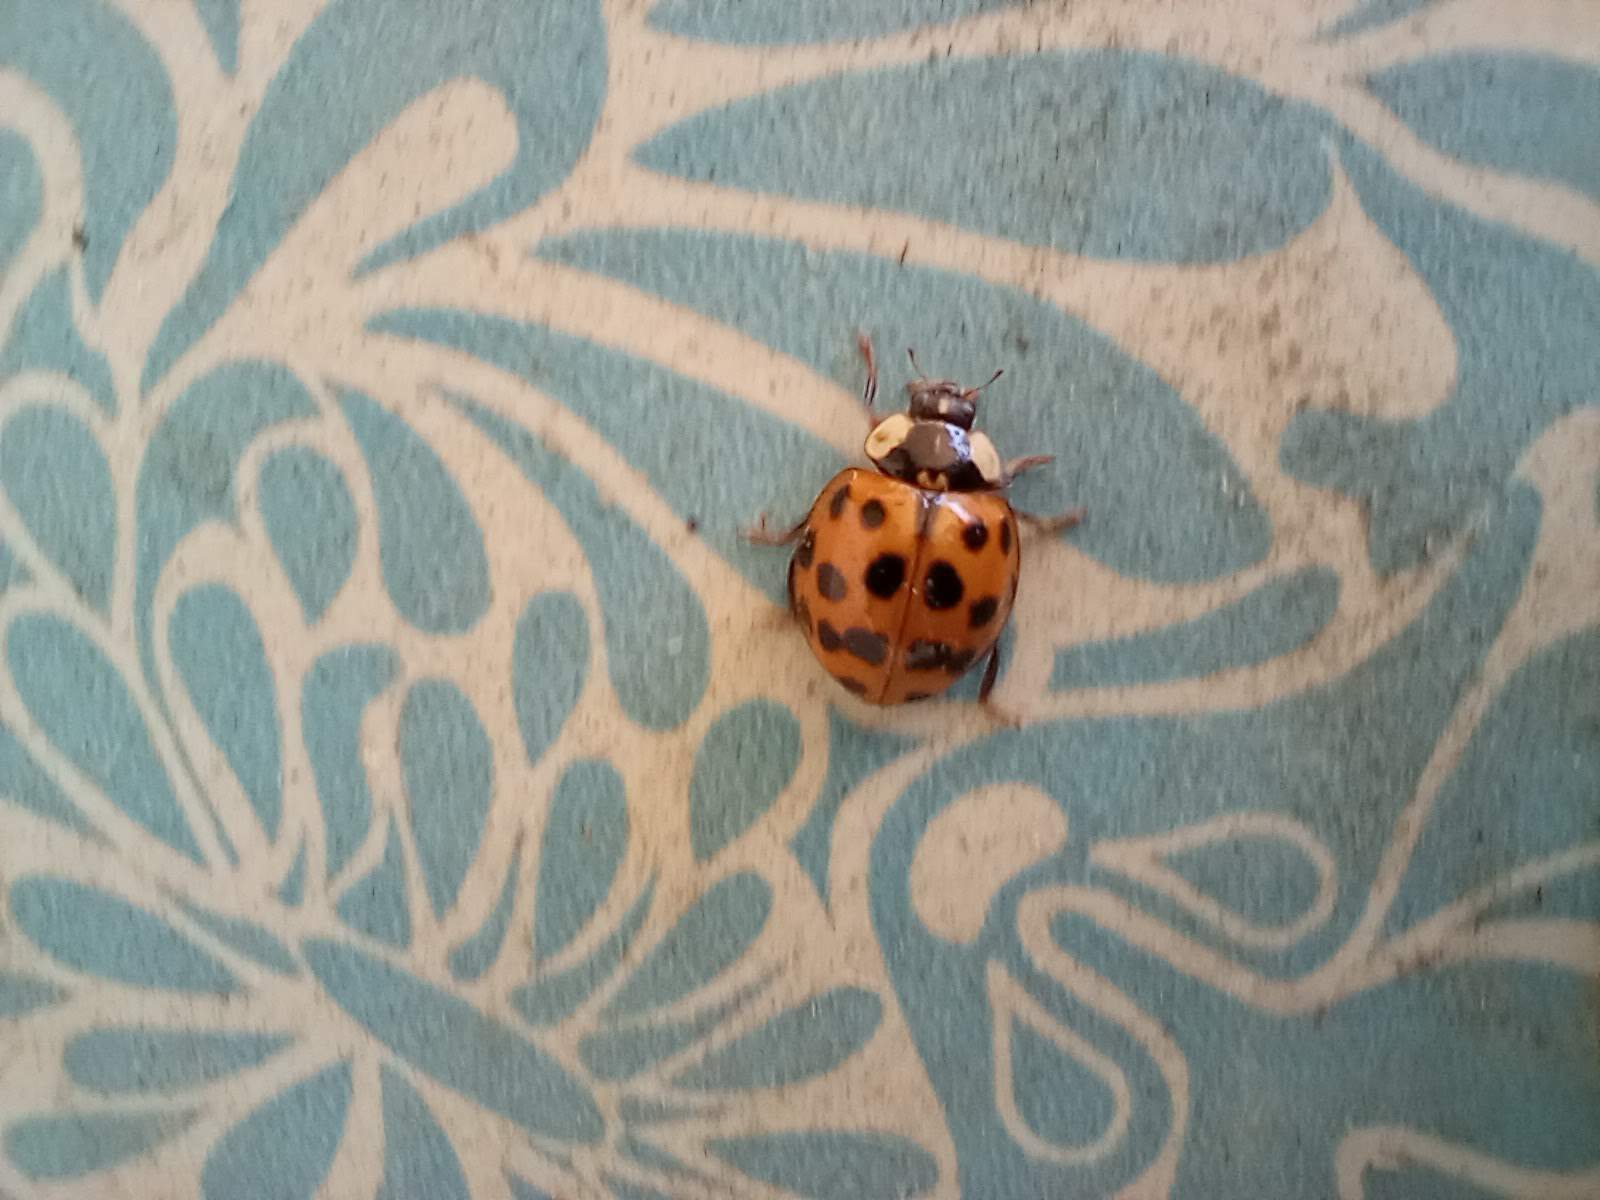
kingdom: Animalia
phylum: Arthropoda
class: Insecta
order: Coleoptera
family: Coccinellidae
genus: Harmonia
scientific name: Harmonia axyridis
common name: Harlequin ladybird
